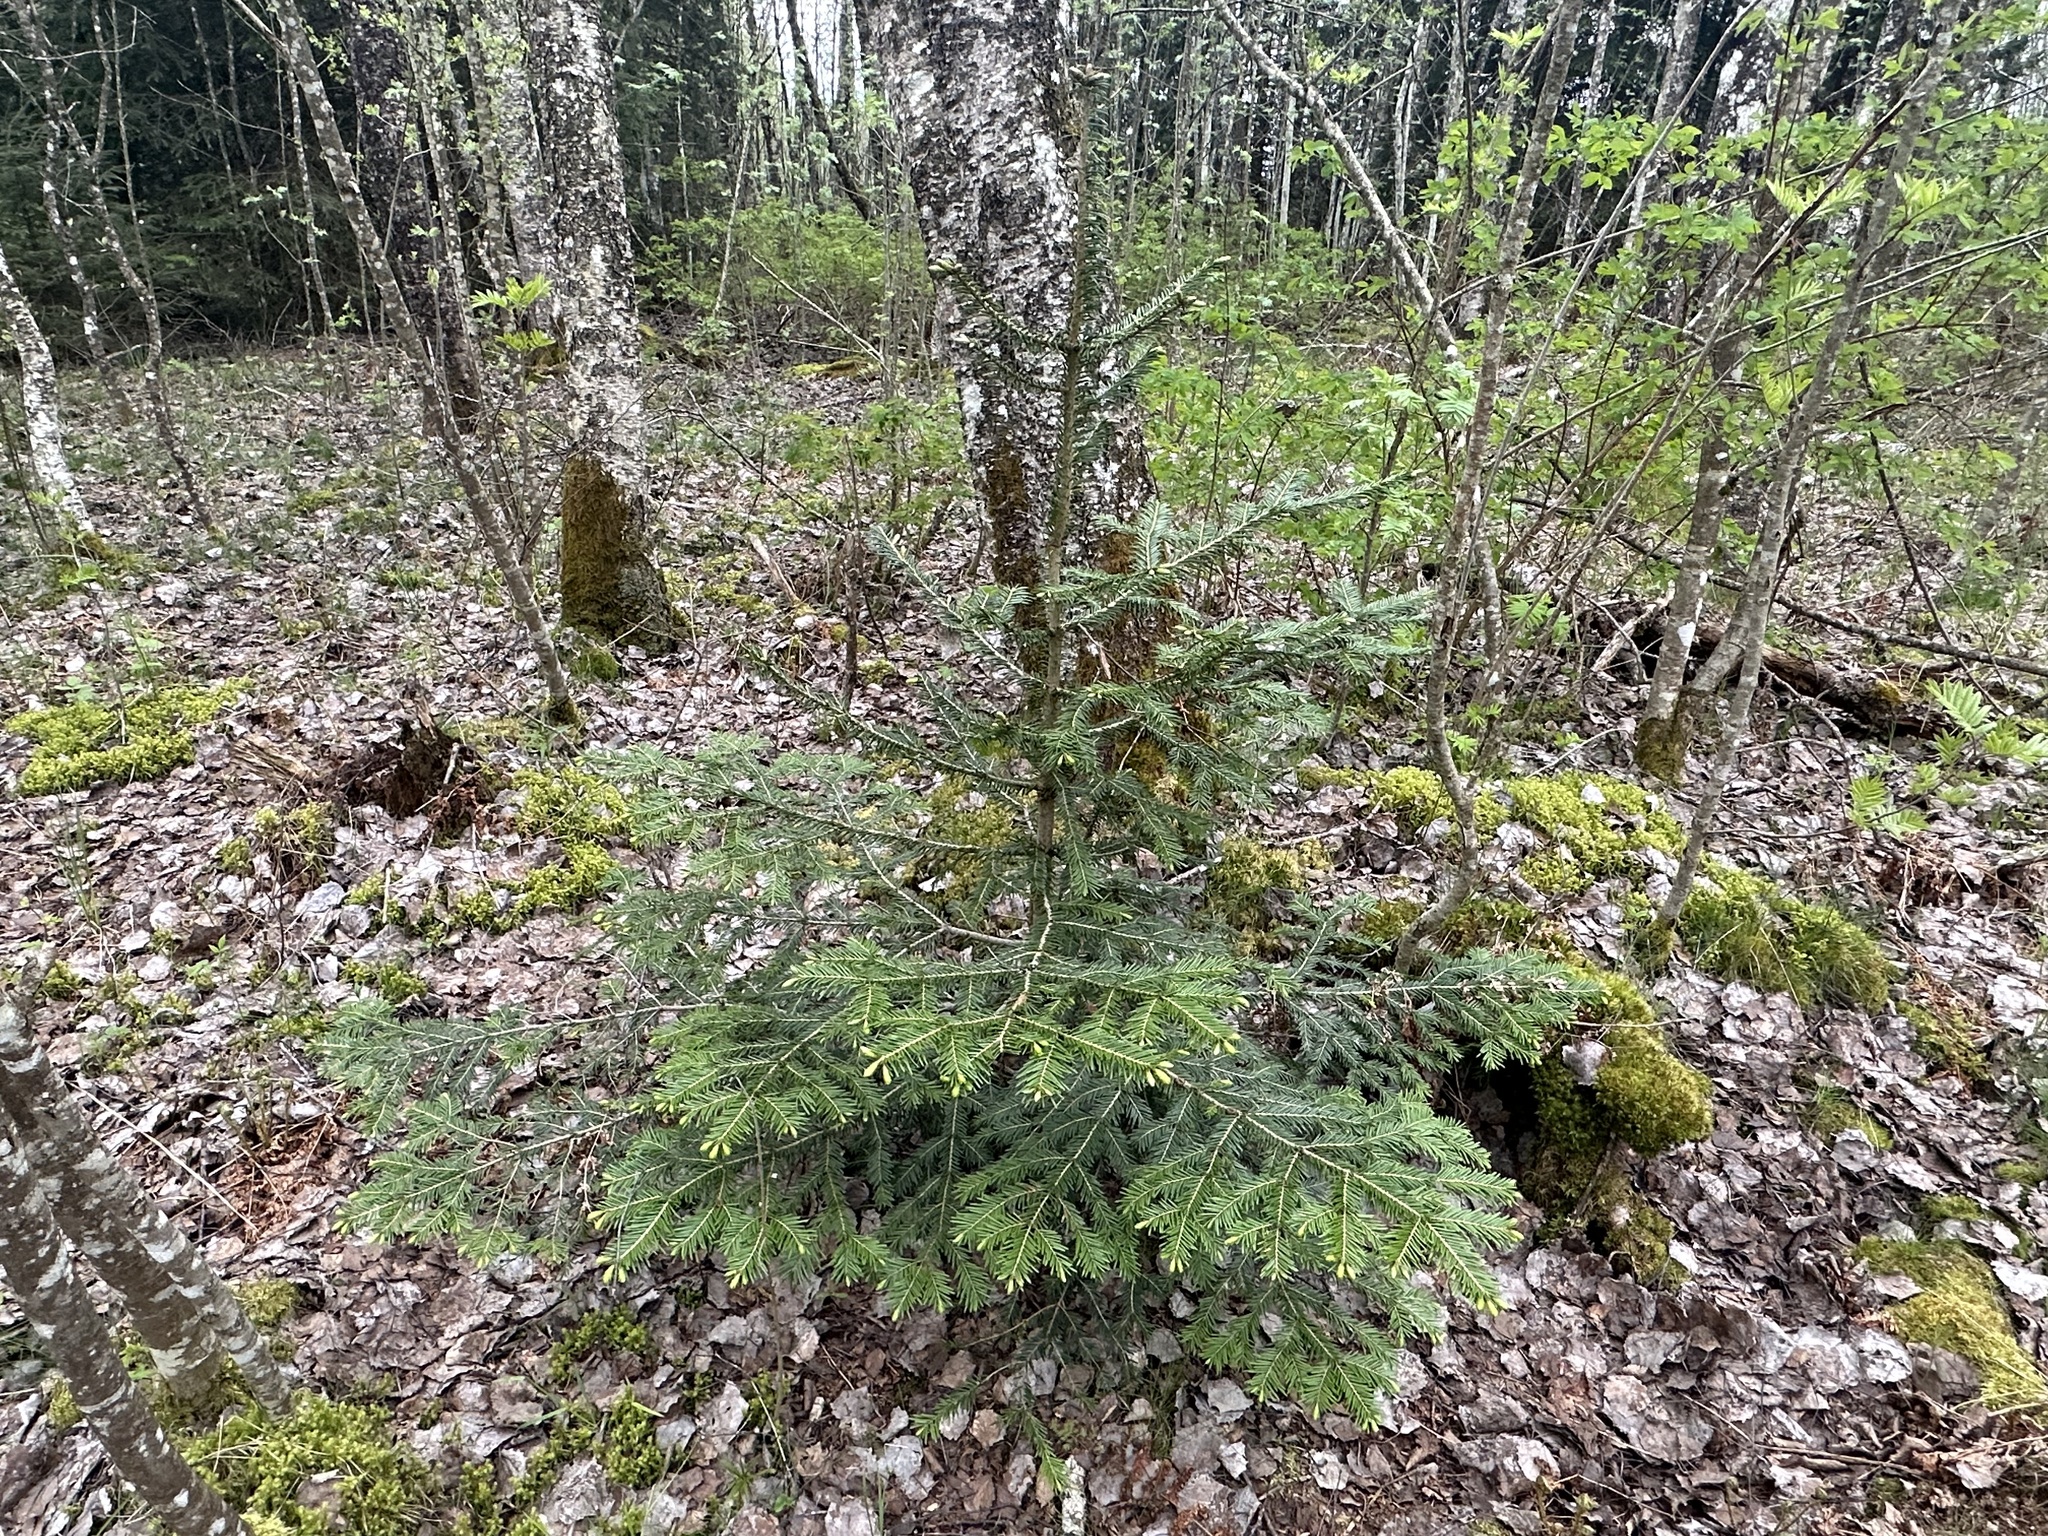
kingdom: Plantae
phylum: Tracheophyta
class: Pinopsida
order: Pinales
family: Pinaceae
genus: Abies
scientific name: Abies alba
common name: Silver fir
